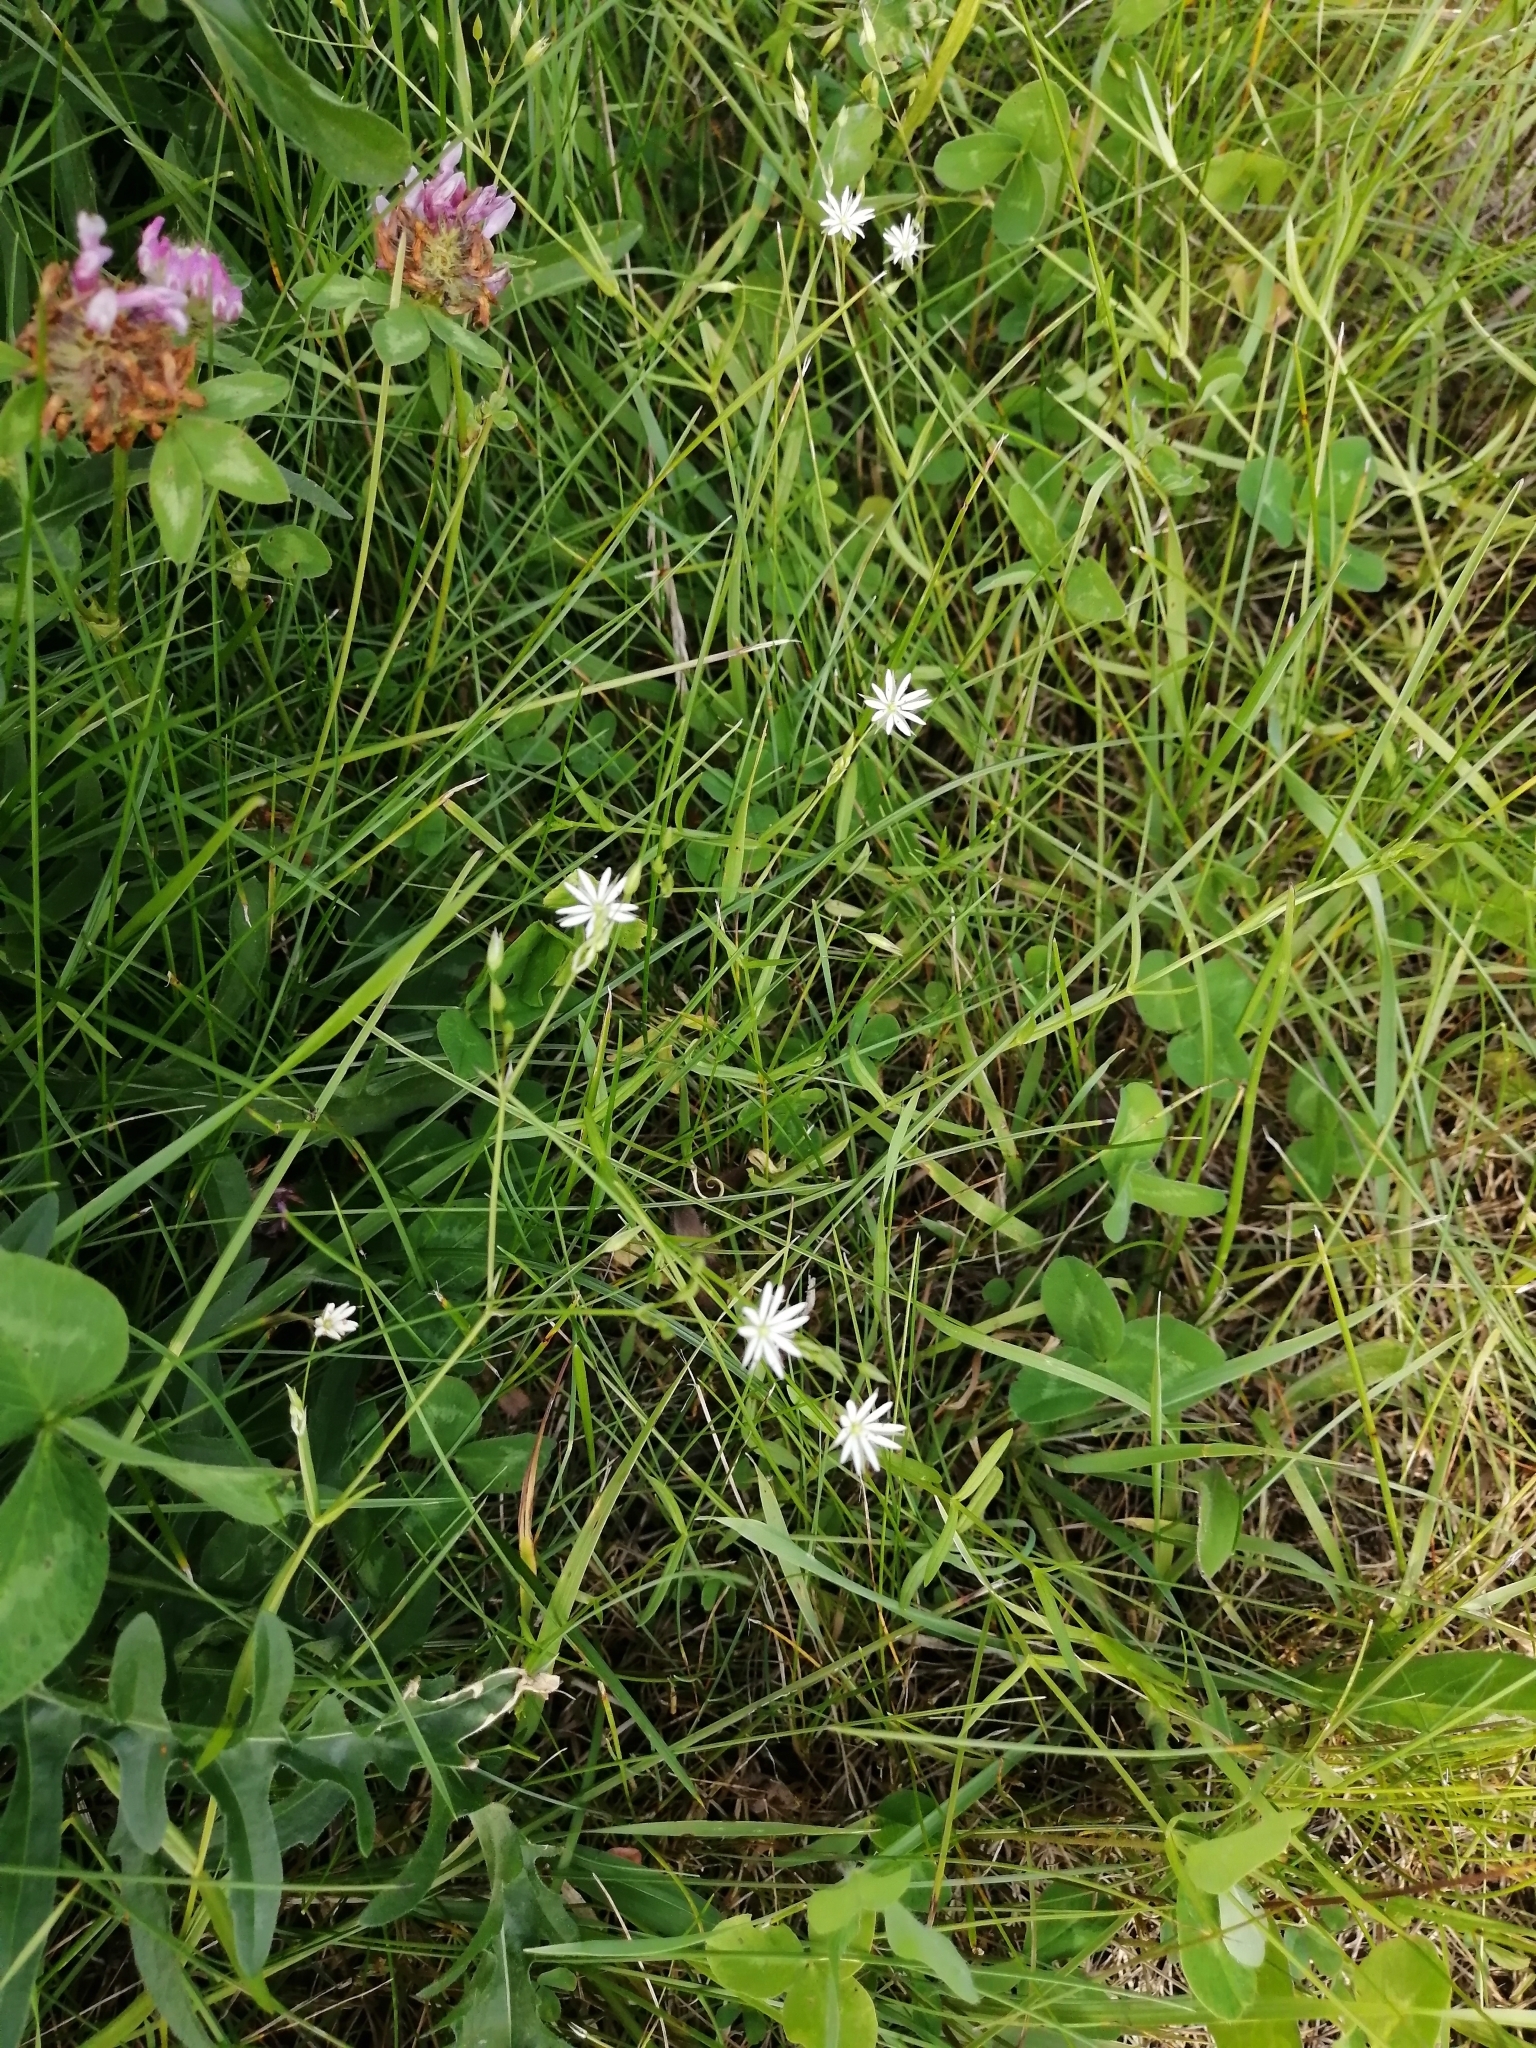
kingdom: Plantae
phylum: Tracheophyta
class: Magnoliopsida
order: Caryophyllales
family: Caryophyllaceae
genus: Stellaria
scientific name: Stellaria graminea
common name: Grass-like starwort
